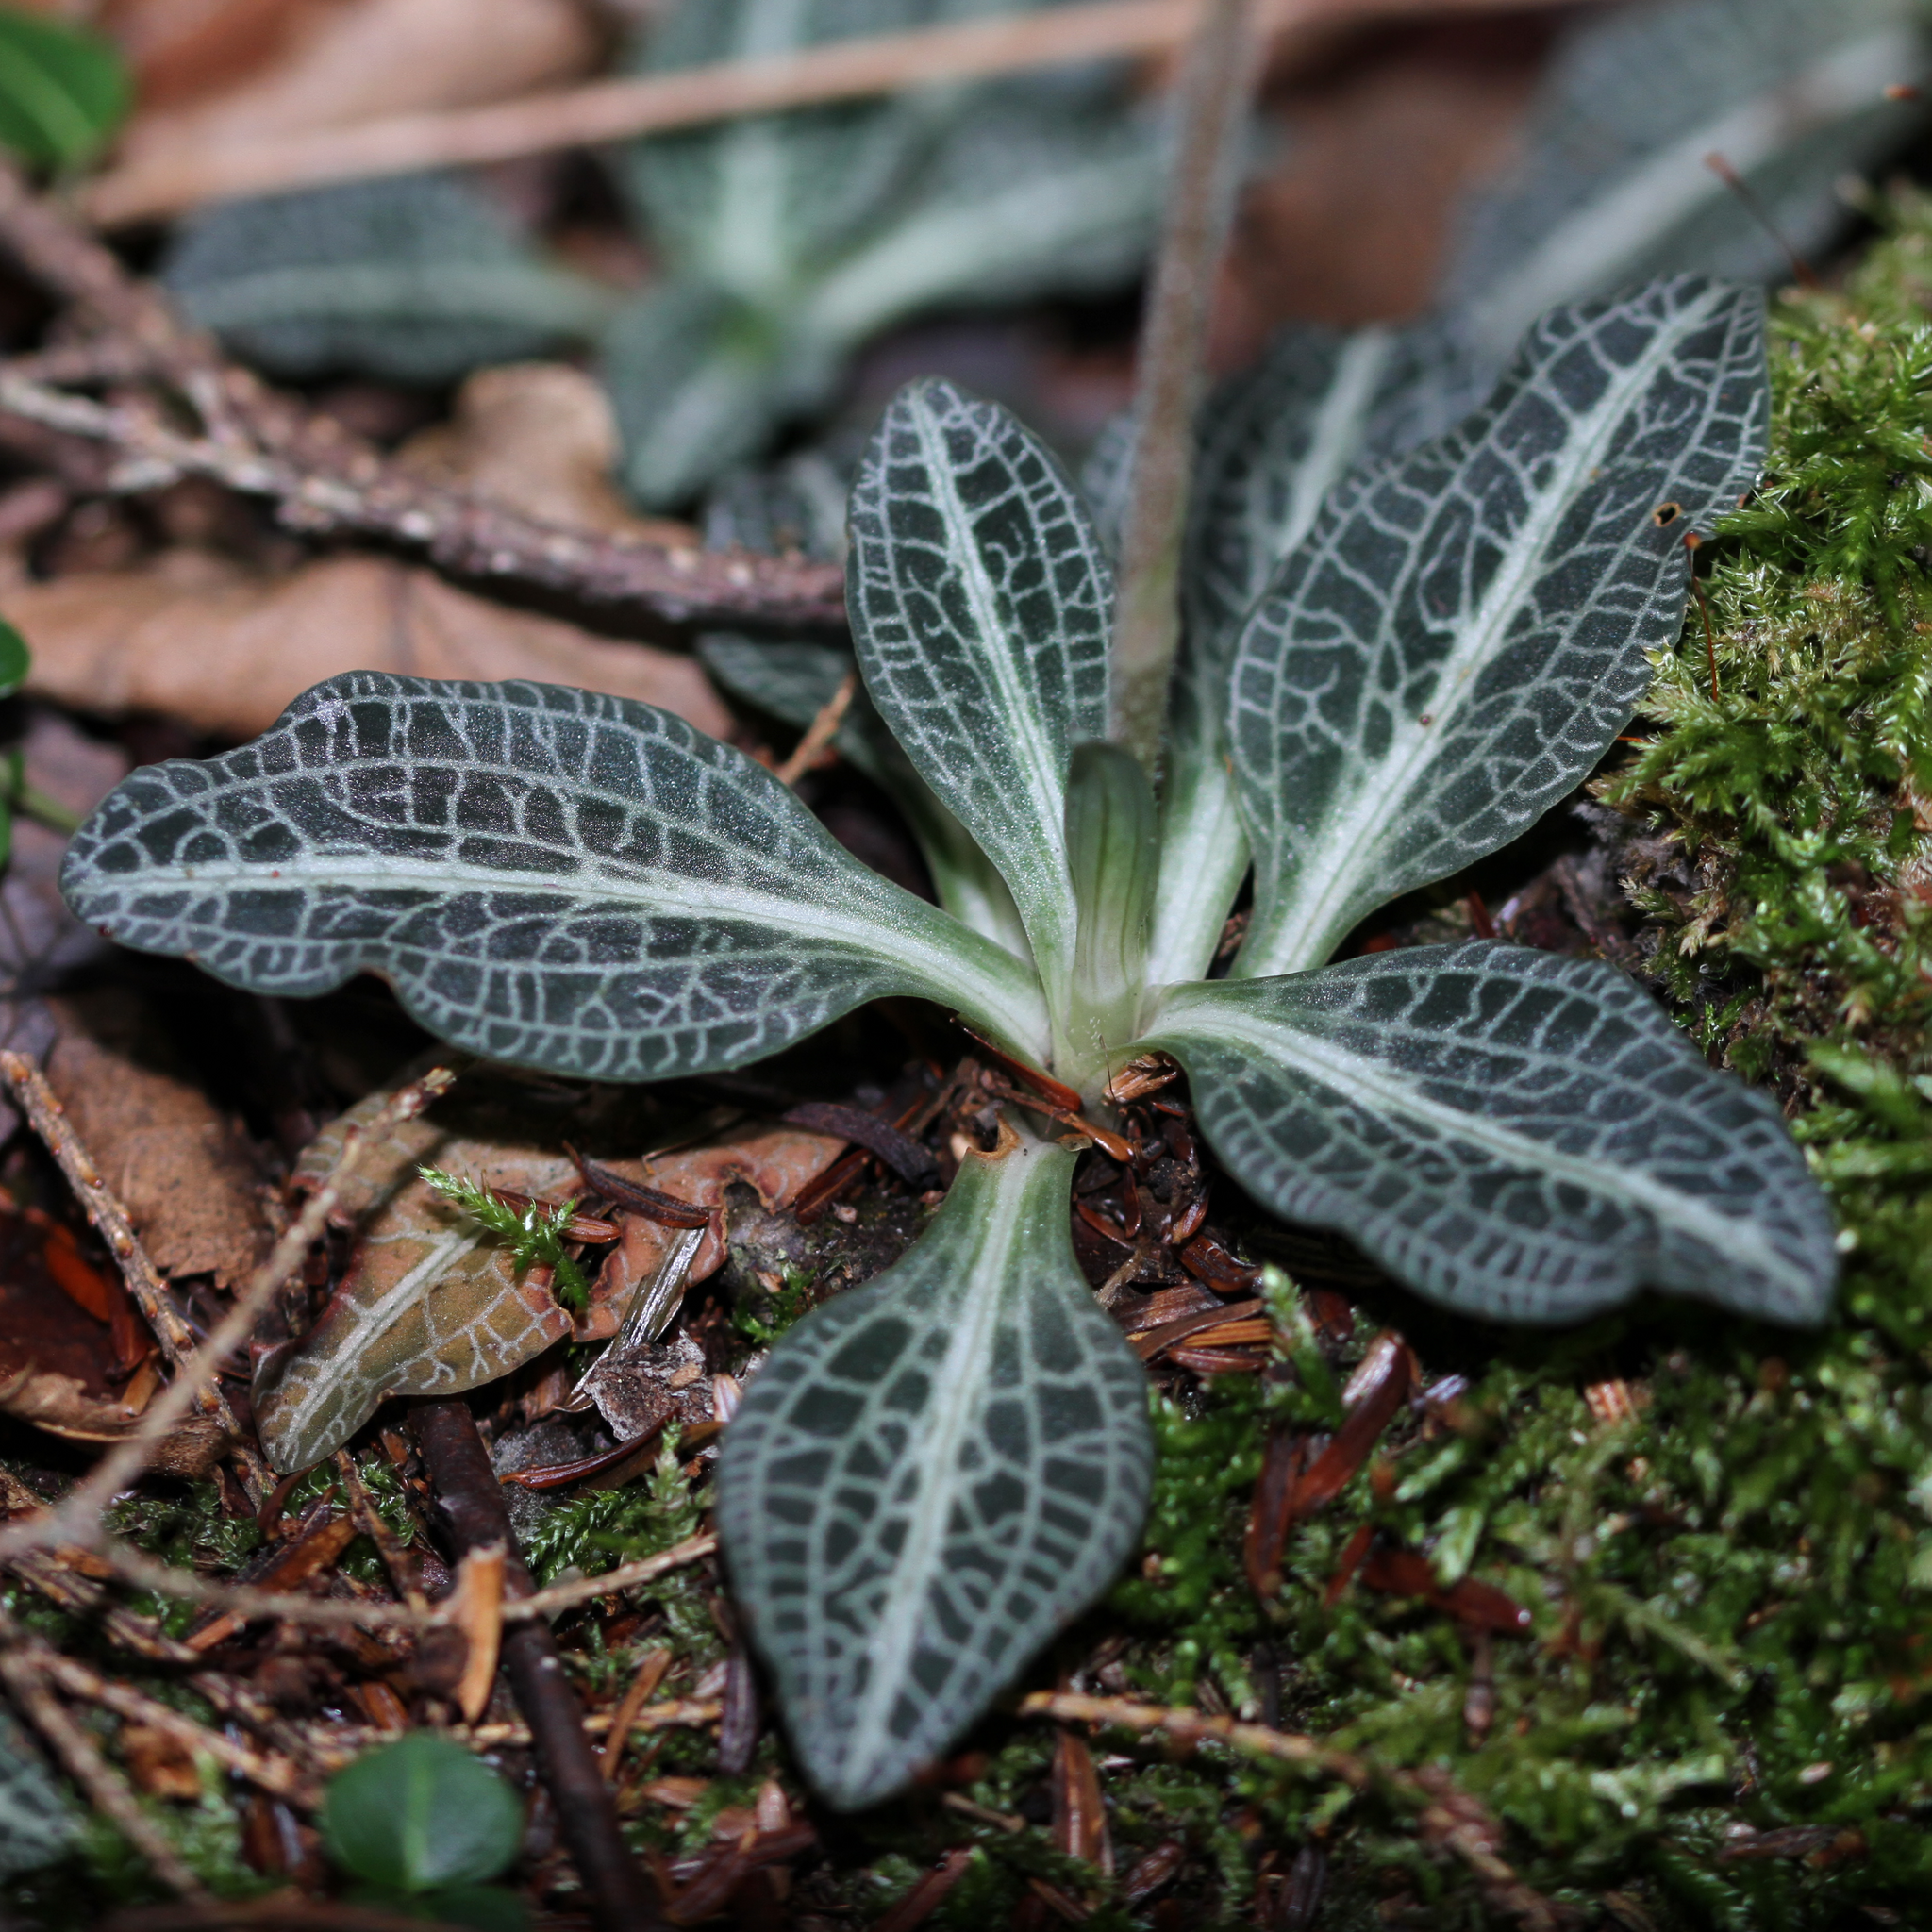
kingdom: Plantae
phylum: Tracheophyta
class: Liliopsida
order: Asparagales
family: Orchidaceae
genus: Goodyera
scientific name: Goodyera pubescens
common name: Downy rattlesnake-plantain
